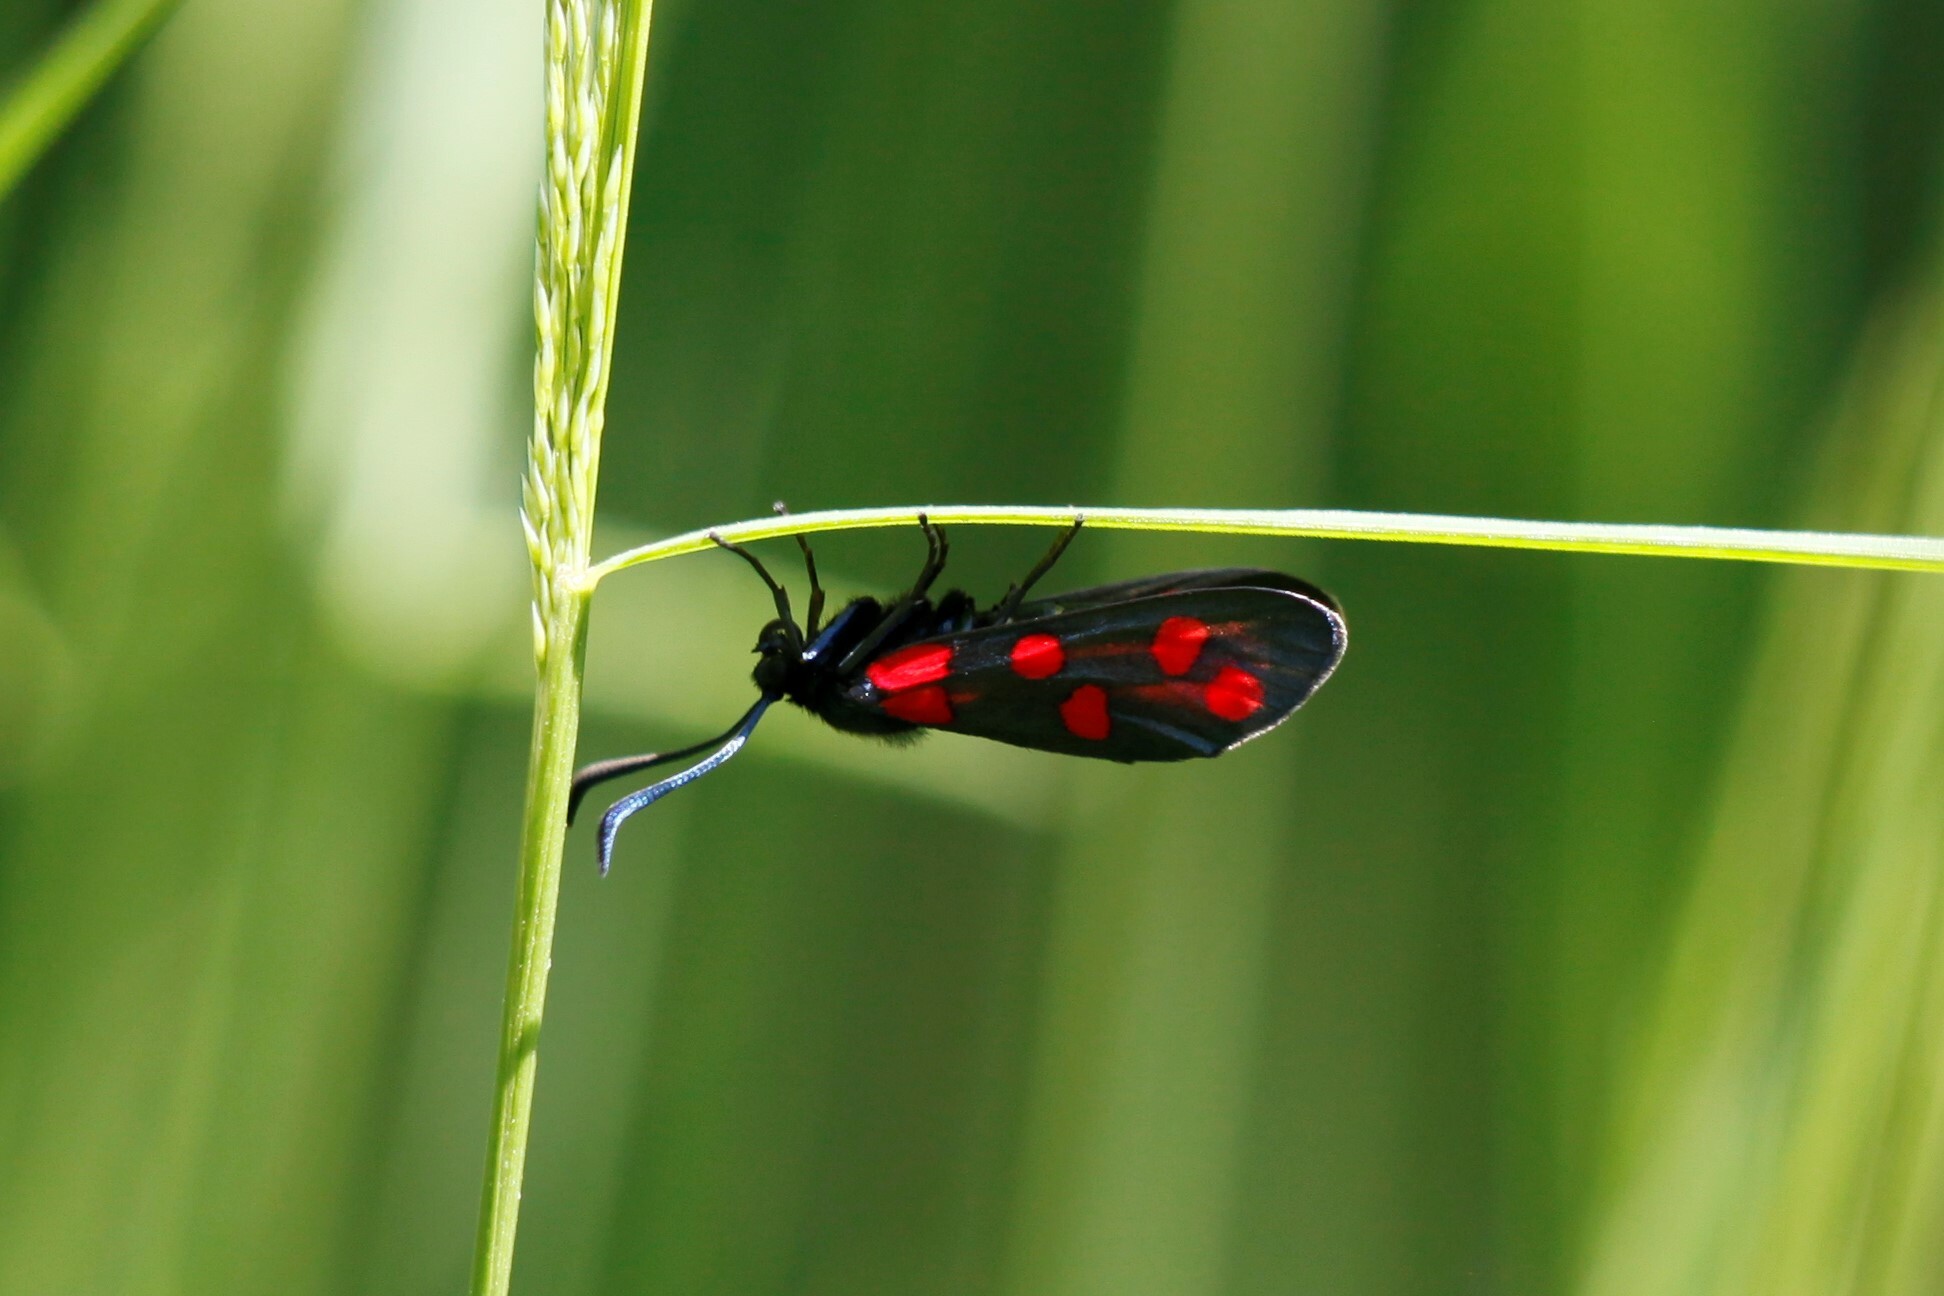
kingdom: Animalia
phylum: Arthropoda
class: Insecta
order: Lepidoptera
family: Zygaenidae
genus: Zygaena
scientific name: Zygaena transalpina
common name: Southern six spot burnet
